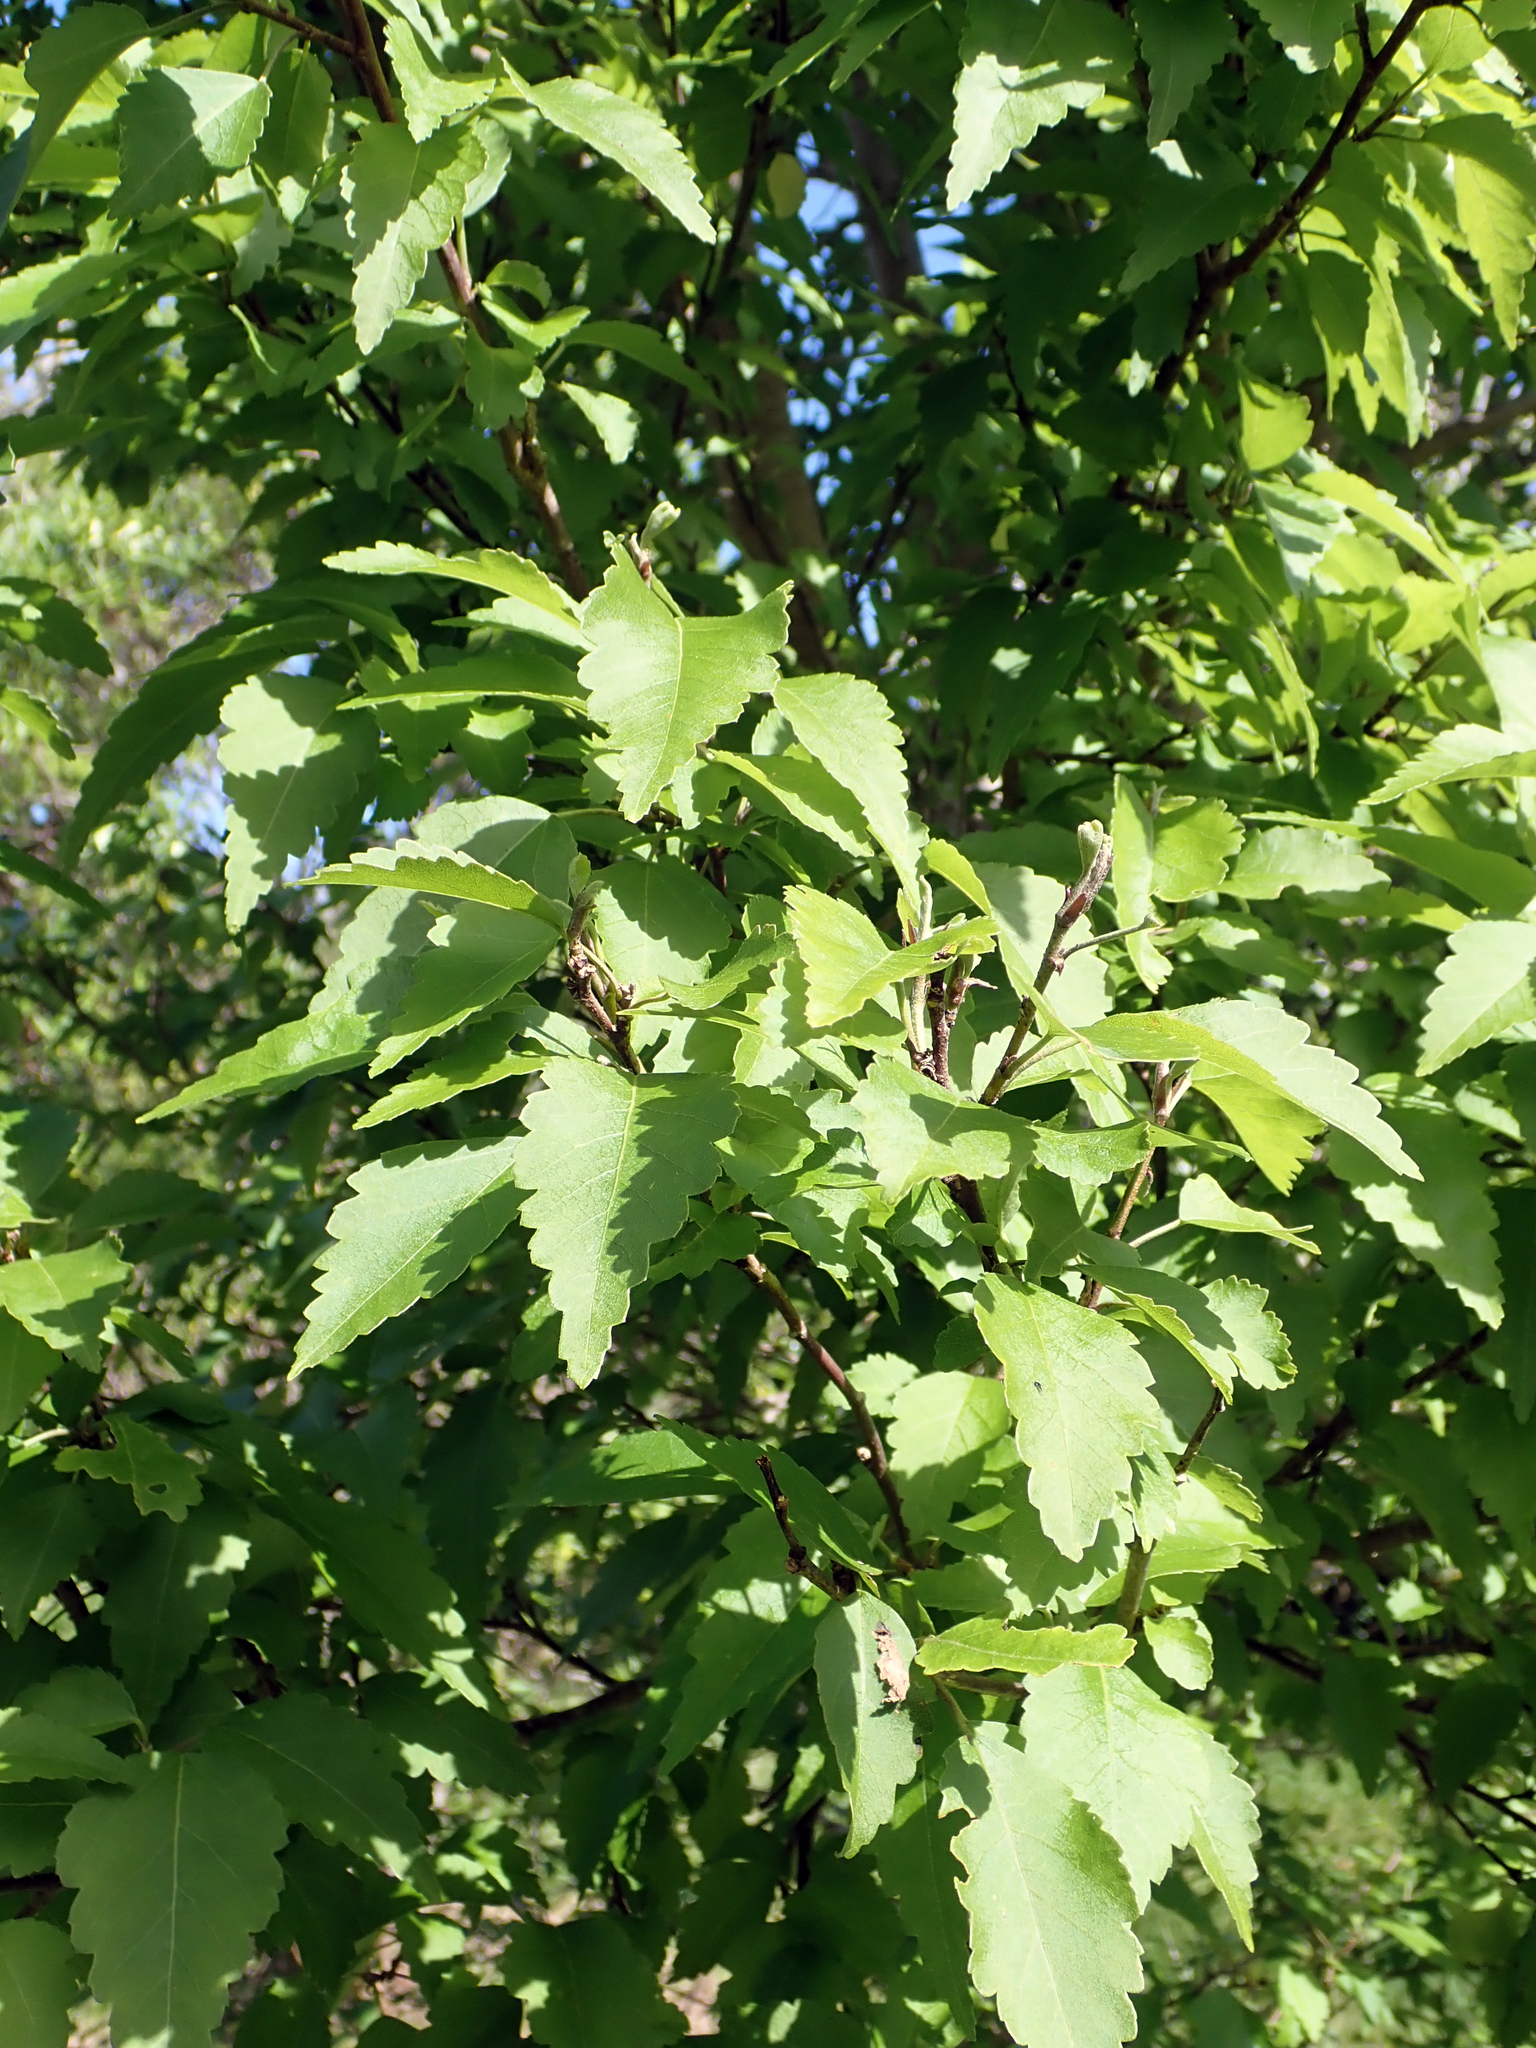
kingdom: Plantae
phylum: Tracheophyta
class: Magnoliopsida
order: Malvales
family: Malvaceae
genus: Plagianthus
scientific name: Plagianthus regius
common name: Manatu
